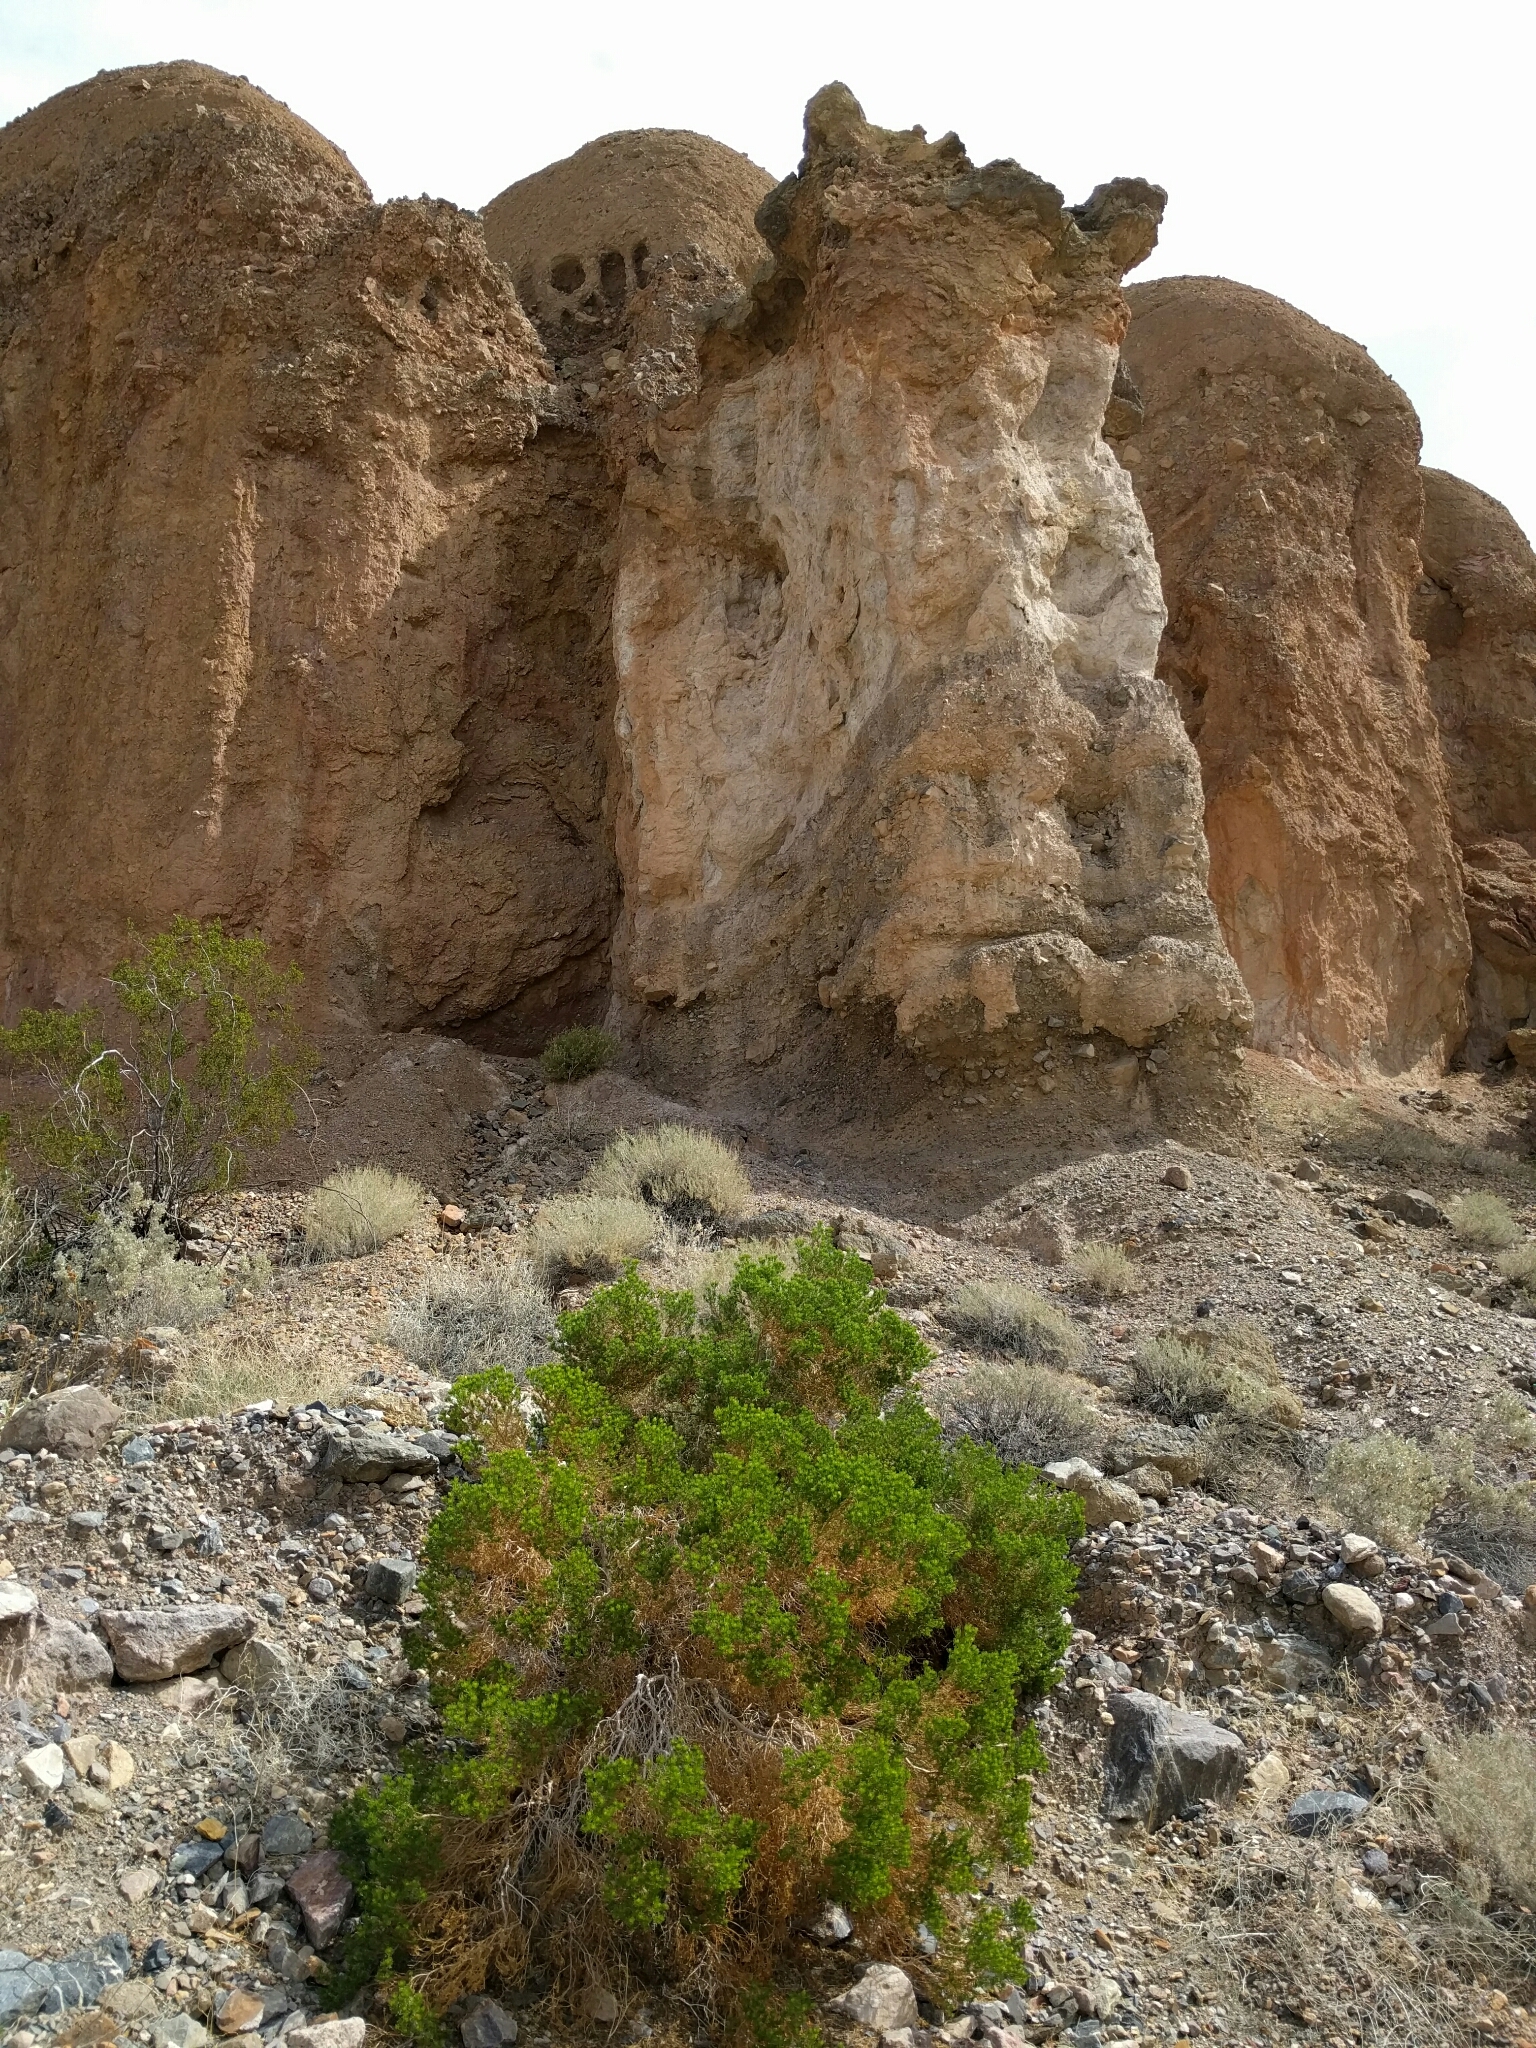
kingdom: Plantae
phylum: Tracheophyta
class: Magnoliopsida
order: Asterales
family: Asteraceae
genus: Peucephyllum
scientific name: Peucephyllum schottii
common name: Pygmy-cedar
